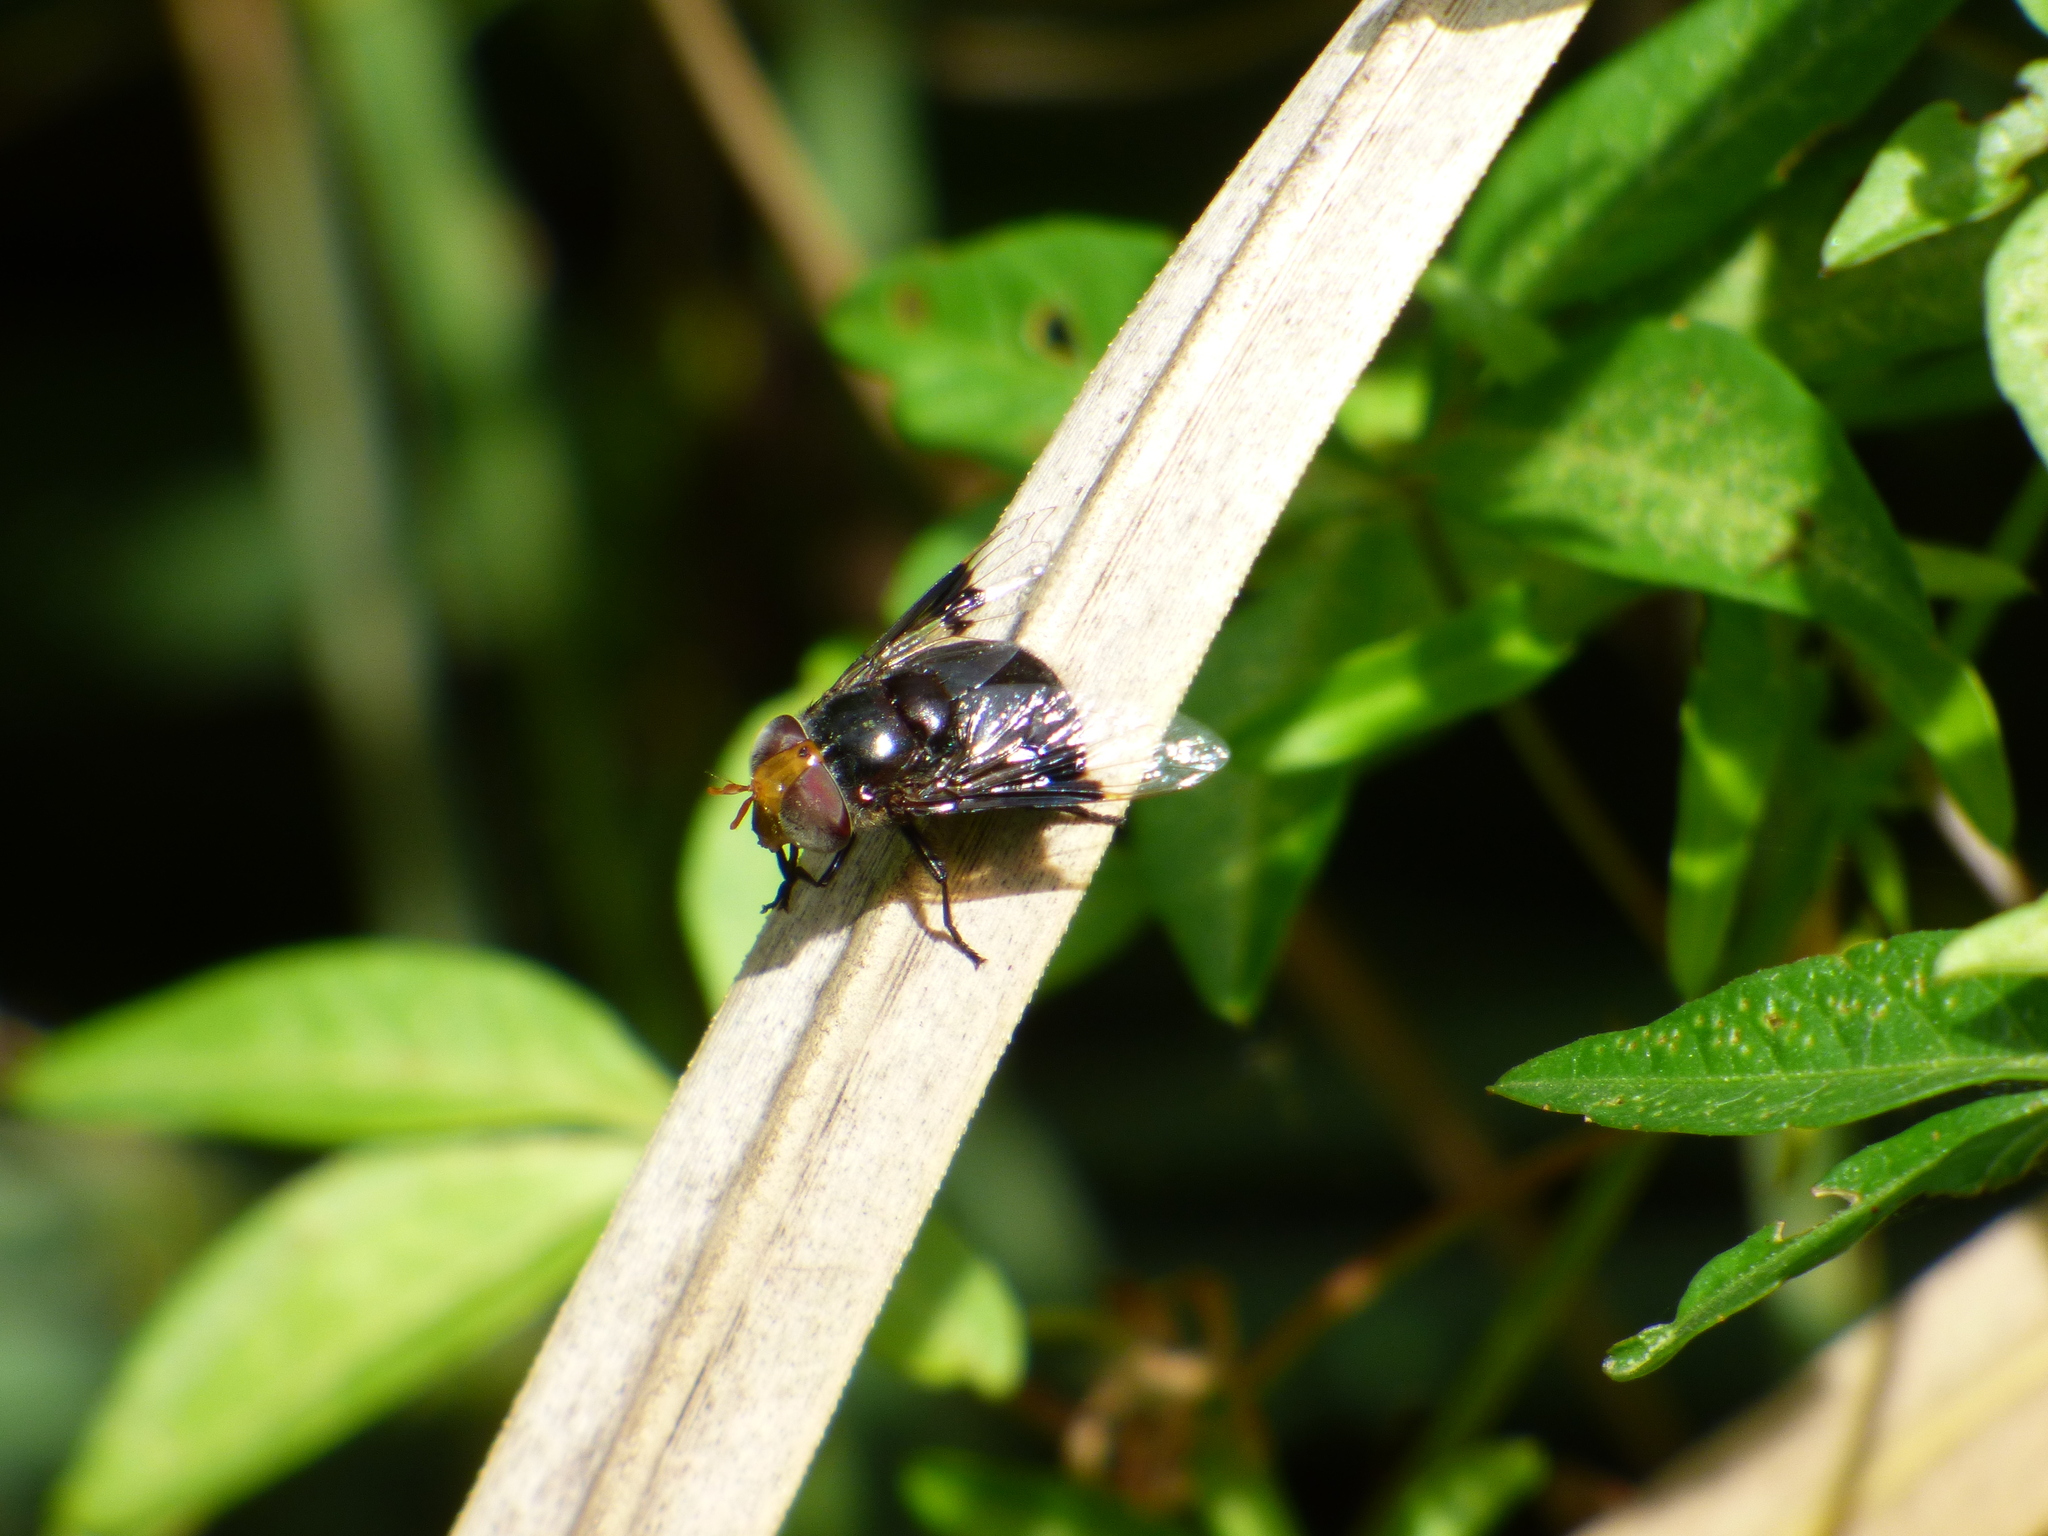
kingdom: Animalia
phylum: Arthropoda
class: Insecta
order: Diptera
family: Syrphidae
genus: Copestylum
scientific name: Copestylum spinigerum
